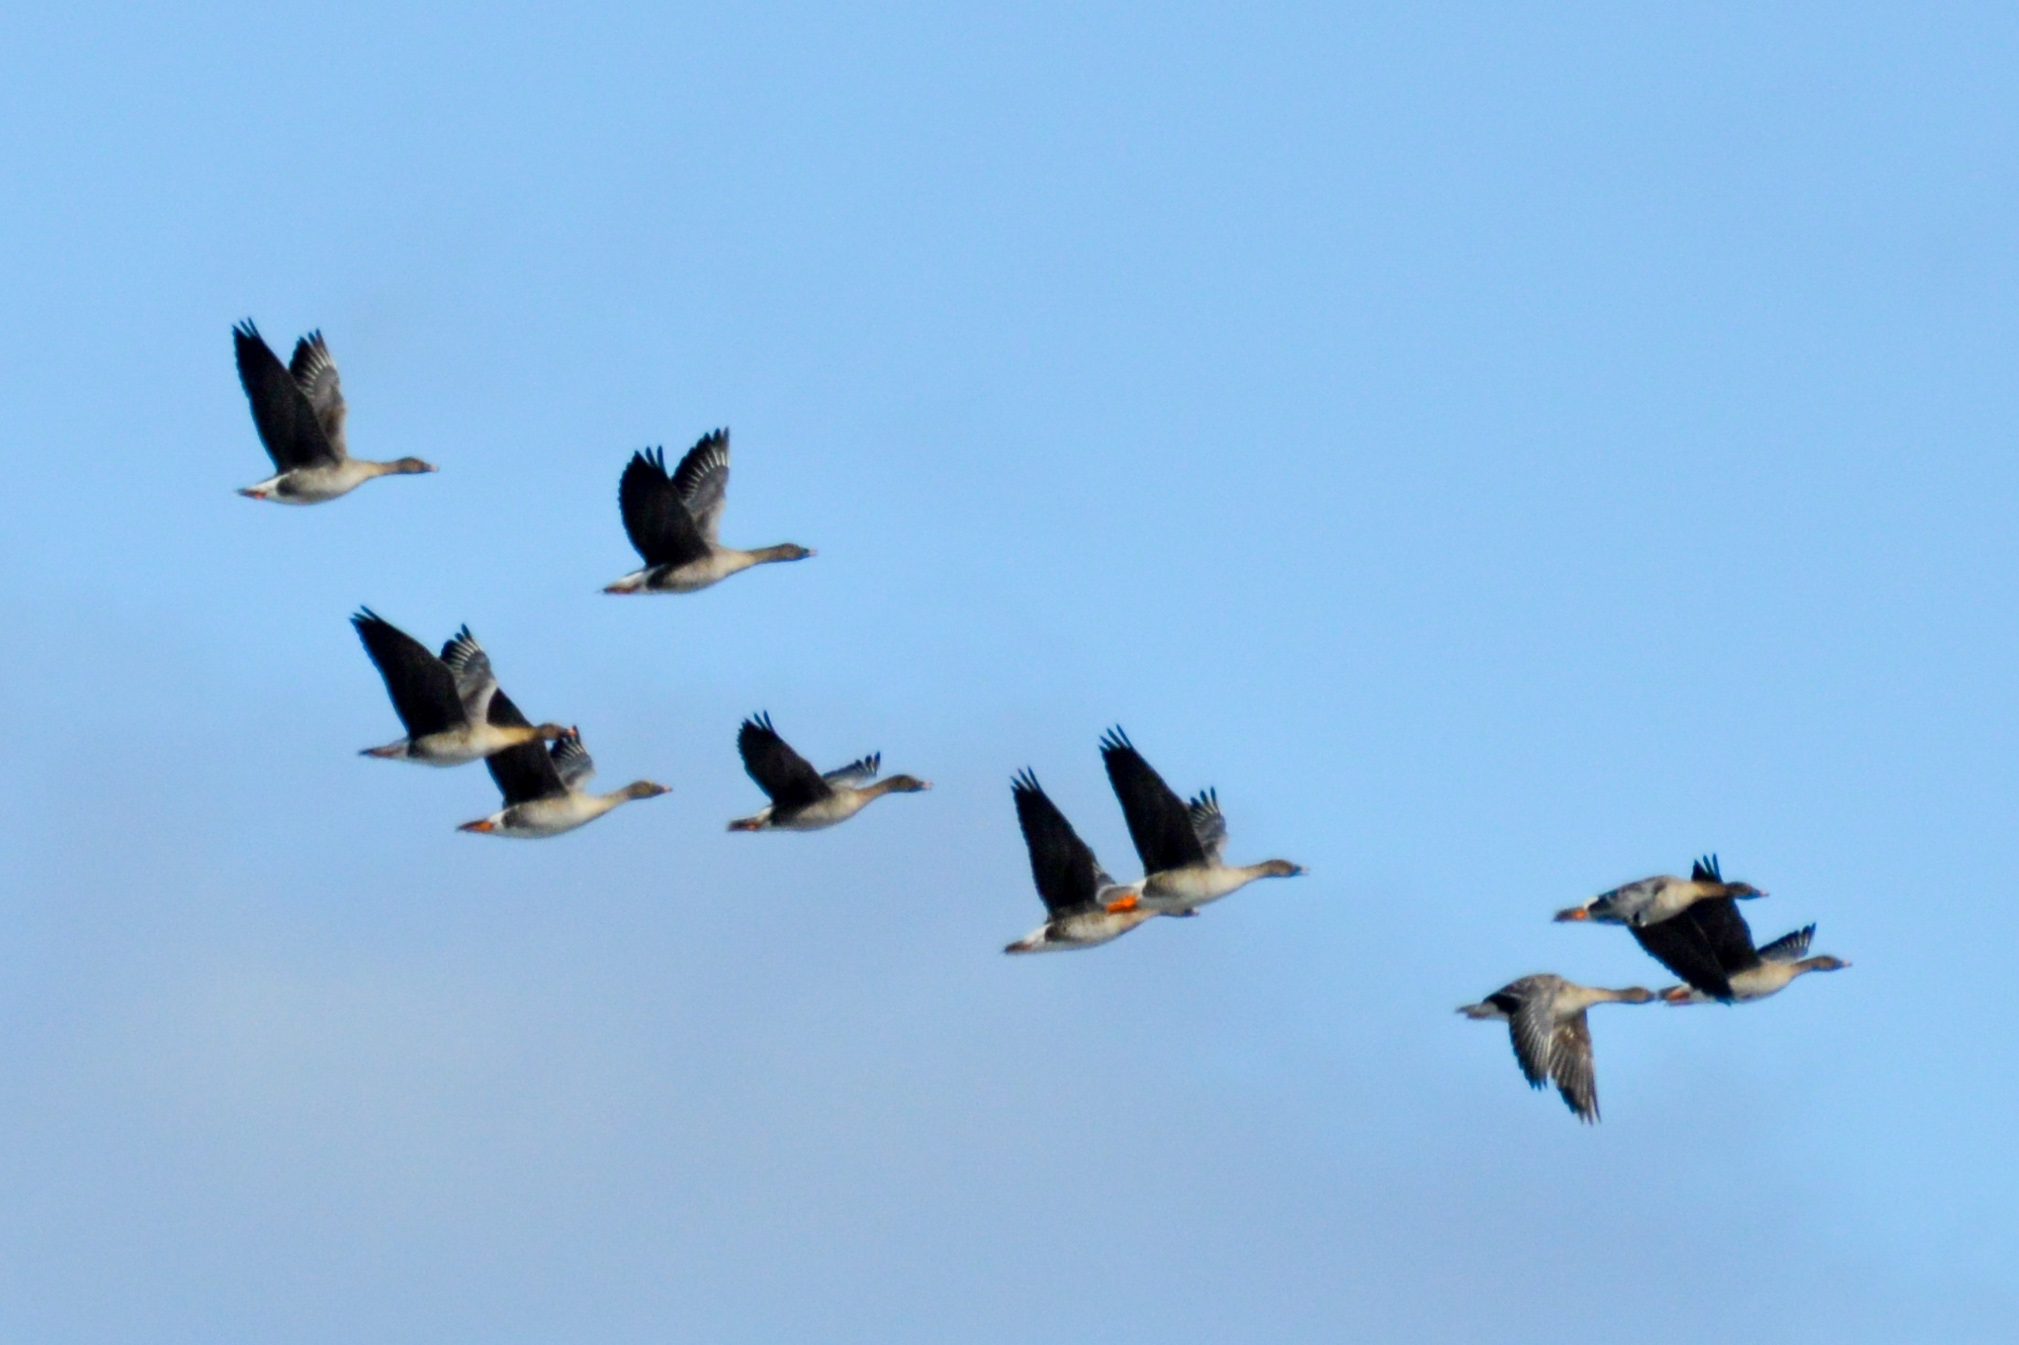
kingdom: Animalia
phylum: Chordata
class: Aves
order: Anseriformes
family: Anatidae
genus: Anser
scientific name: Anser fabalis
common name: Bean goose
